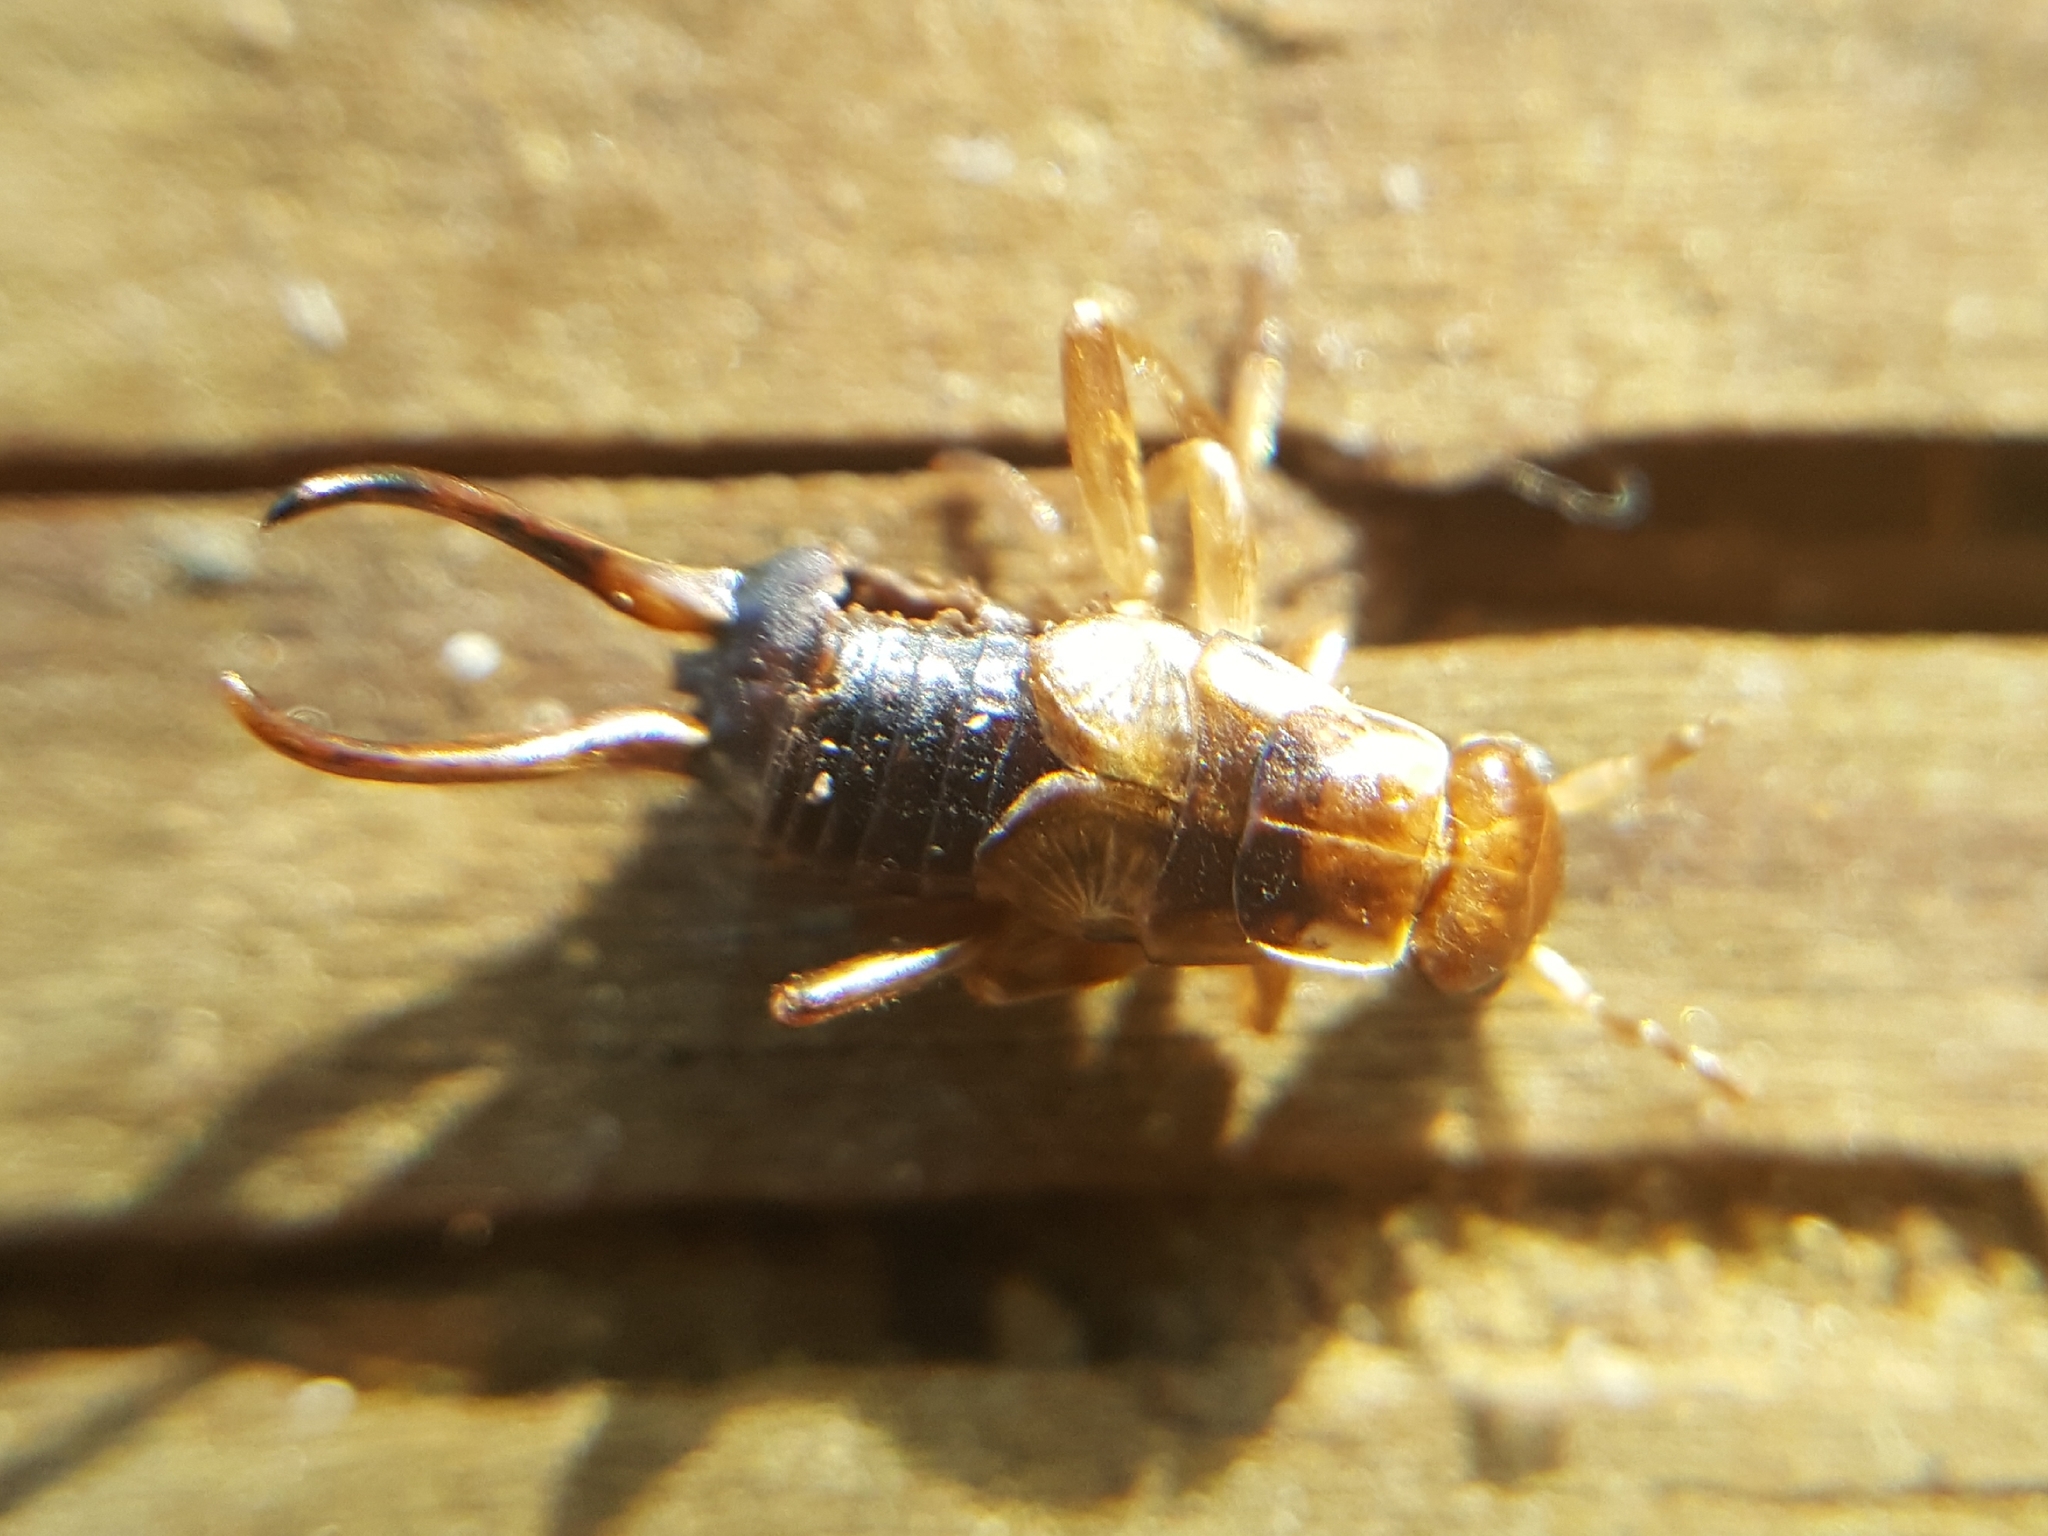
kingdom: Animalia
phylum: Arthropoda
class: Insecta
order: Dermaptera
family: Forficulidae
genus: Forficula
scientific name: Forficula
